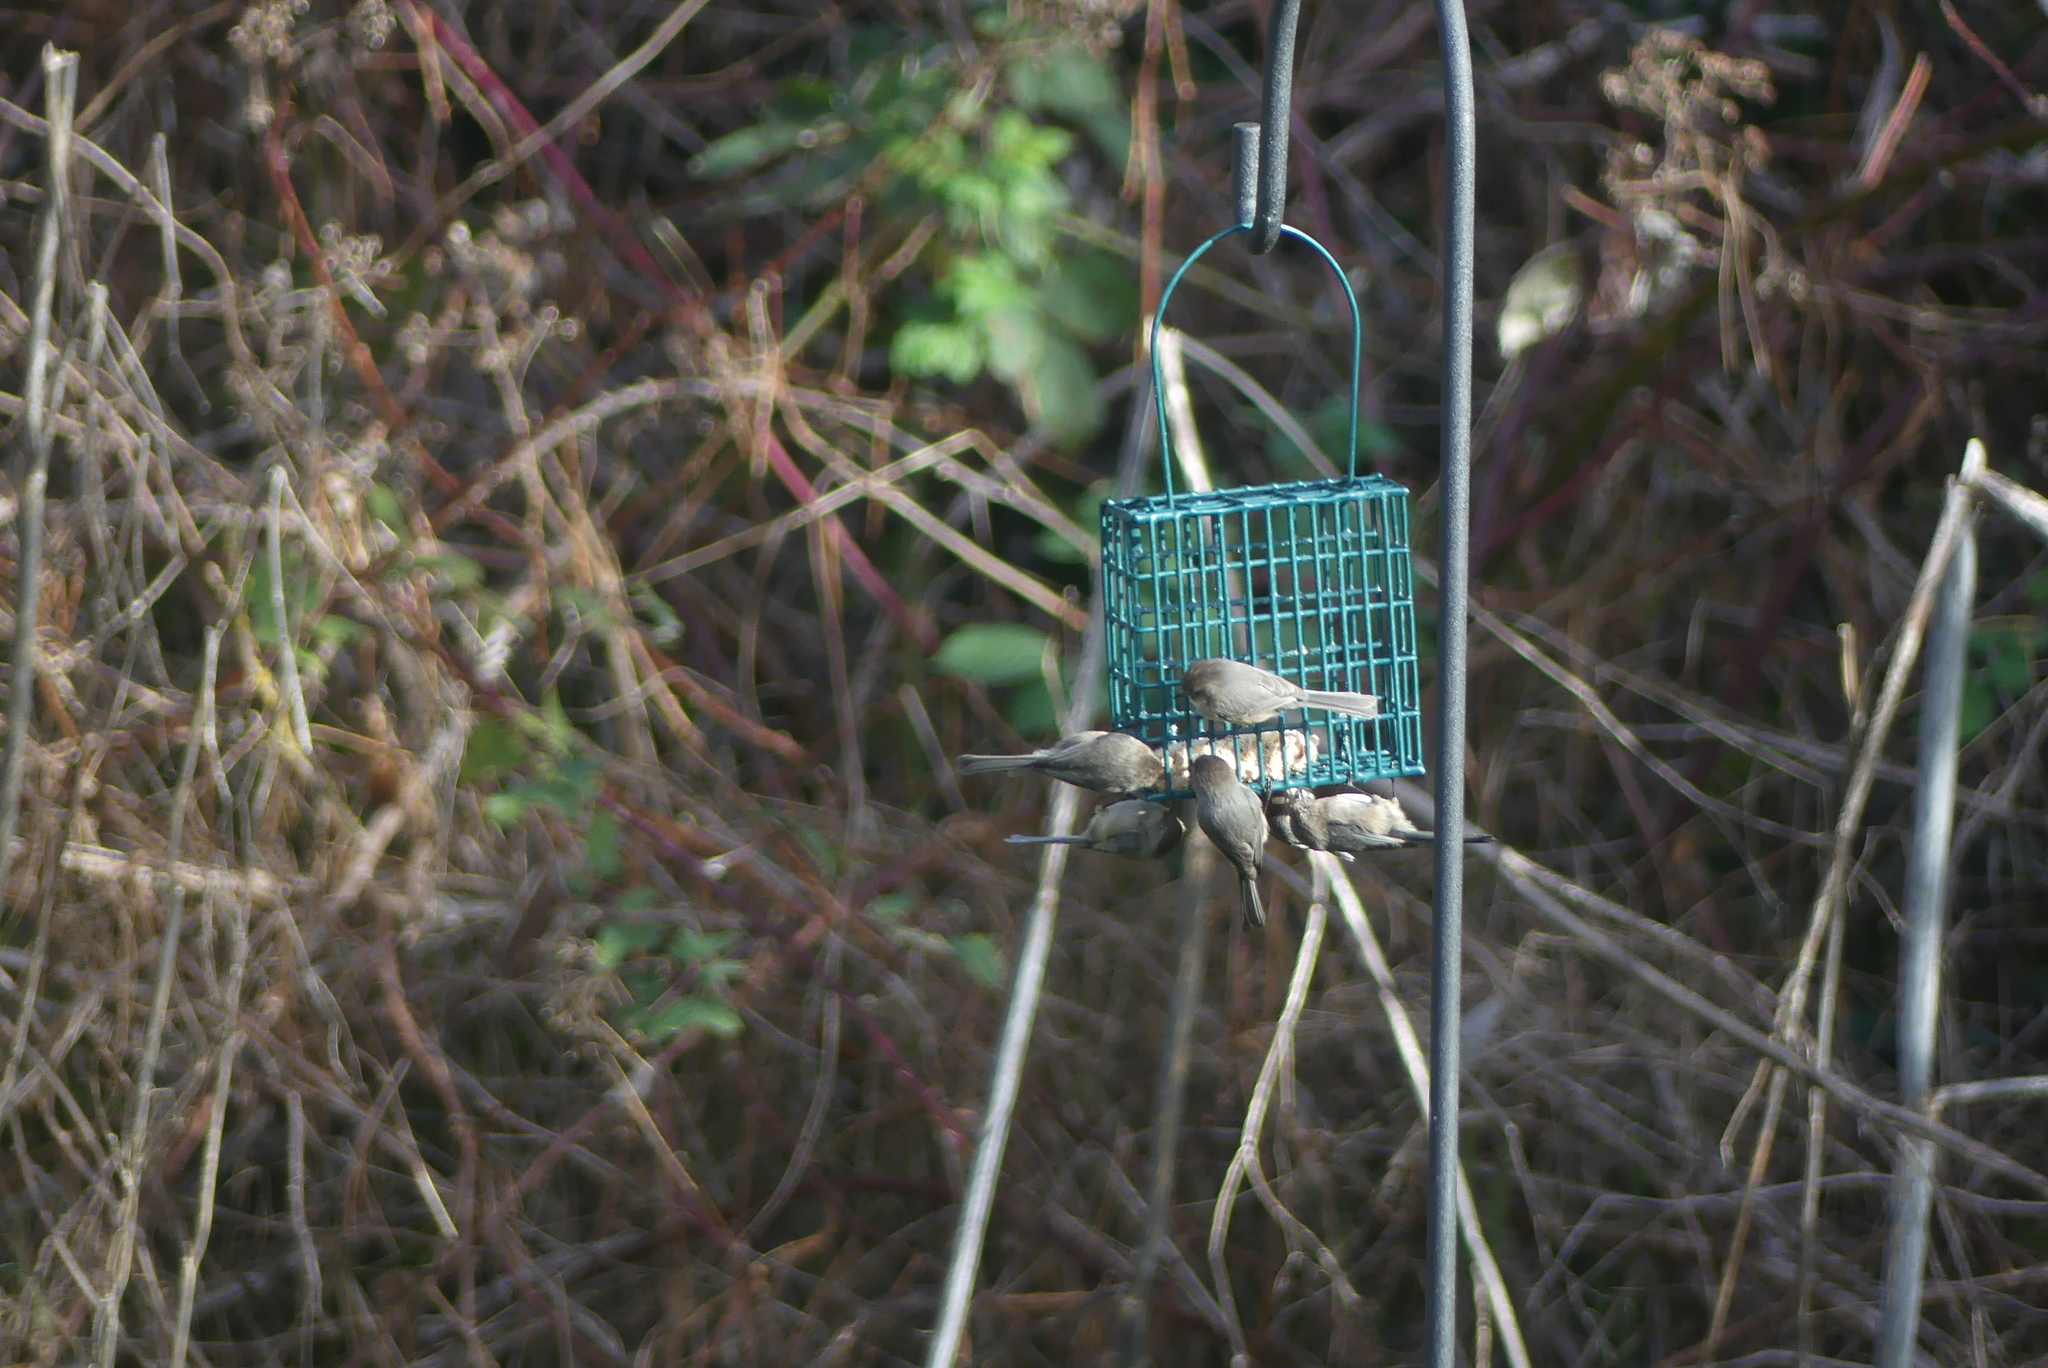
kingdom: Animalia
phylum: Chordata
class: Aves
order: Passeriformes
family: Aegithalidae
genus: Psaltriparus
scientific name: Psaltriparus minimus
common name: American bushtit
